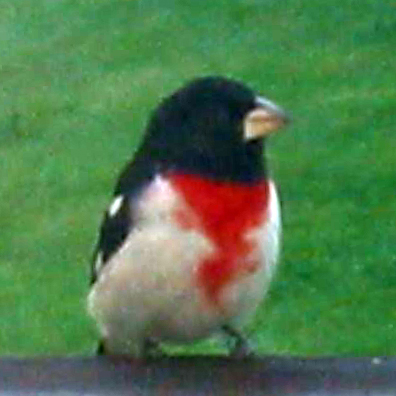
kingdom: Animalia
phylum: Chordata
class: Aves
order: Passeriformes
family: Cardinalidae
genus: Pheucticus
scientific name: Pheucticus ludovicianus
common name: Rose-breasted grosbeak
